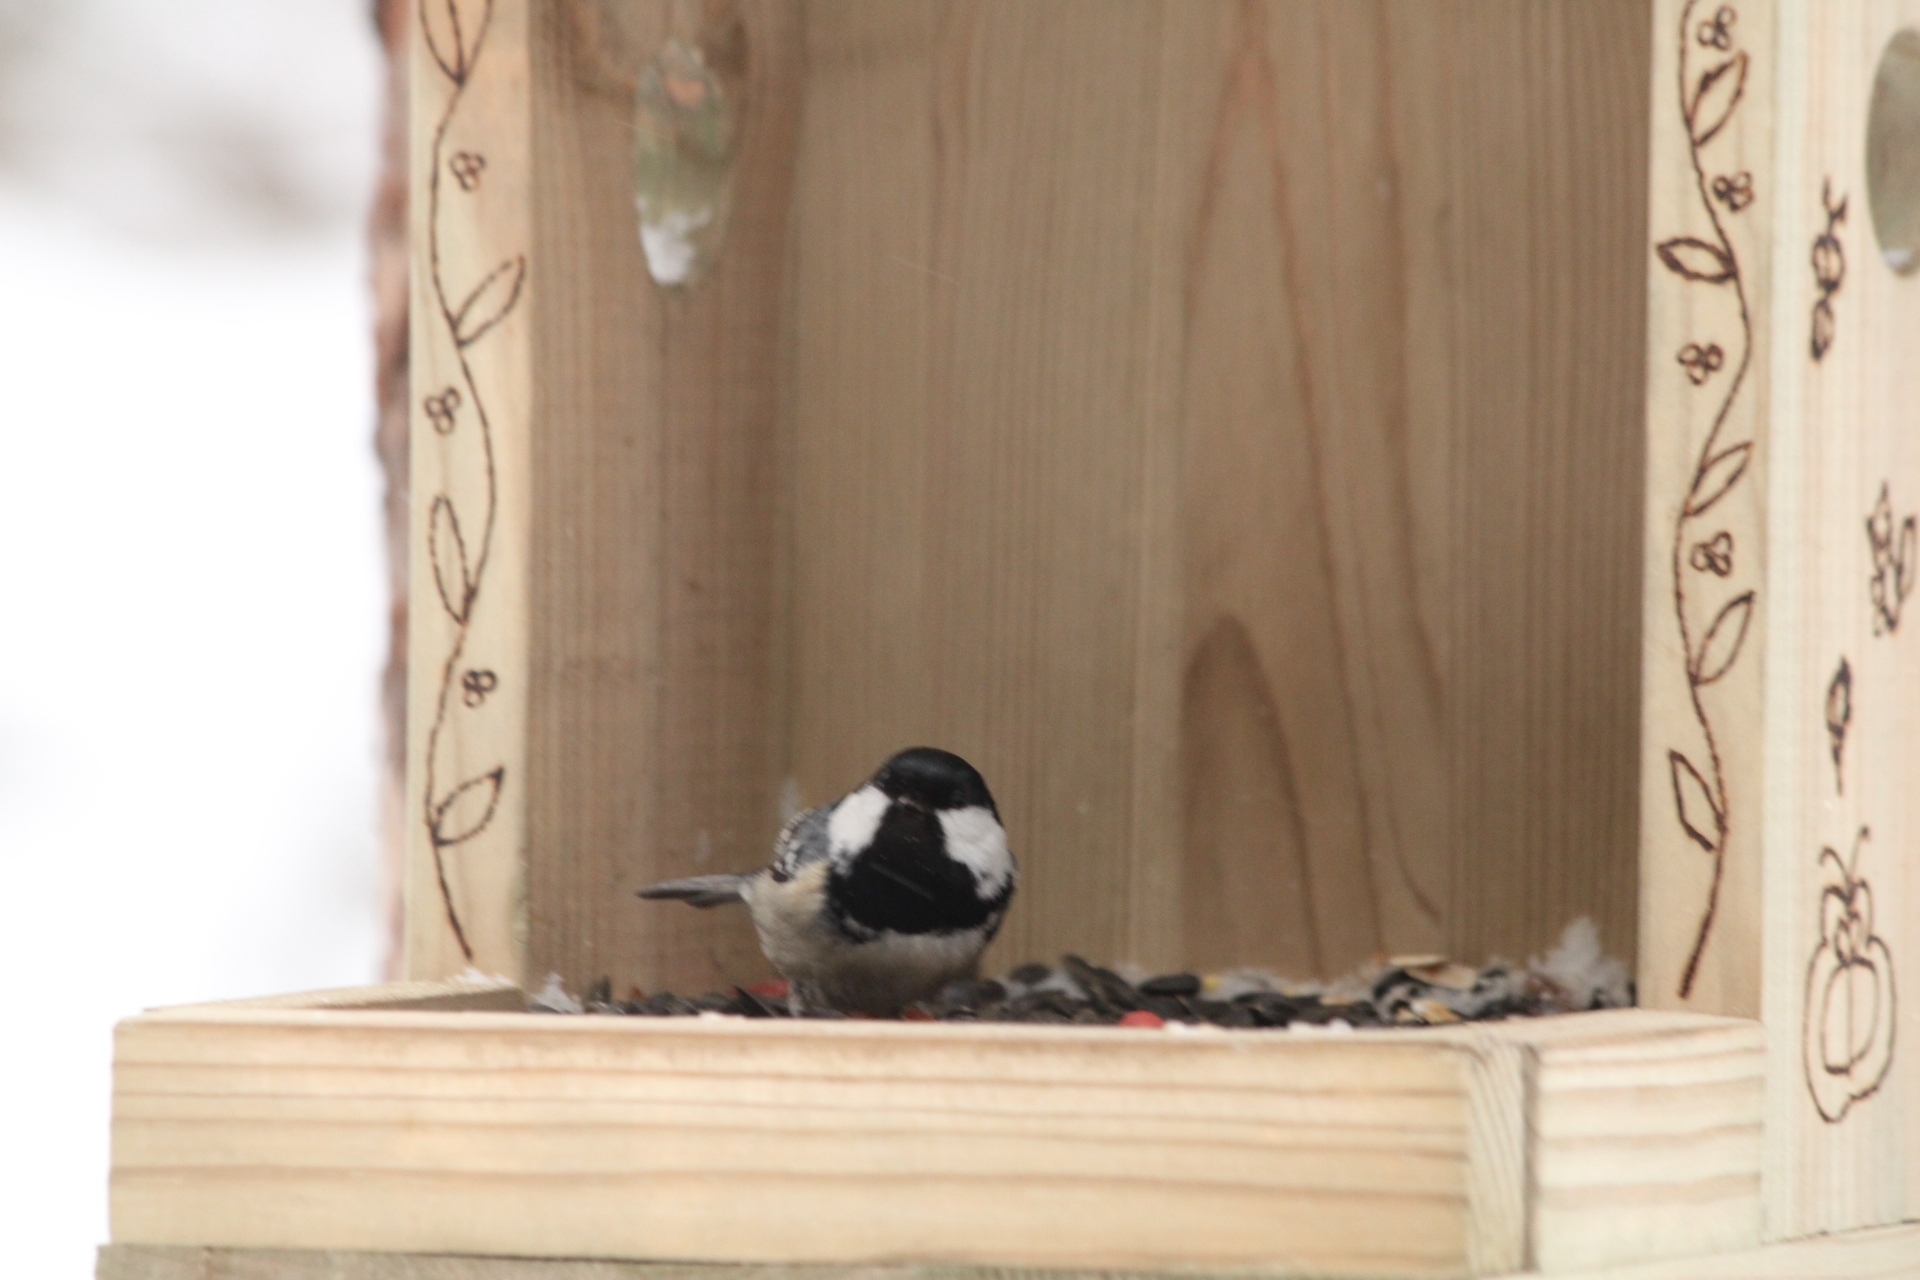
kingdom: Animalia
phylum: Chordata
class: Aves
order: Passeriformes
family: Paridae
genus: Periparus
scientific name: Periparus ater
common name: Coal tit
